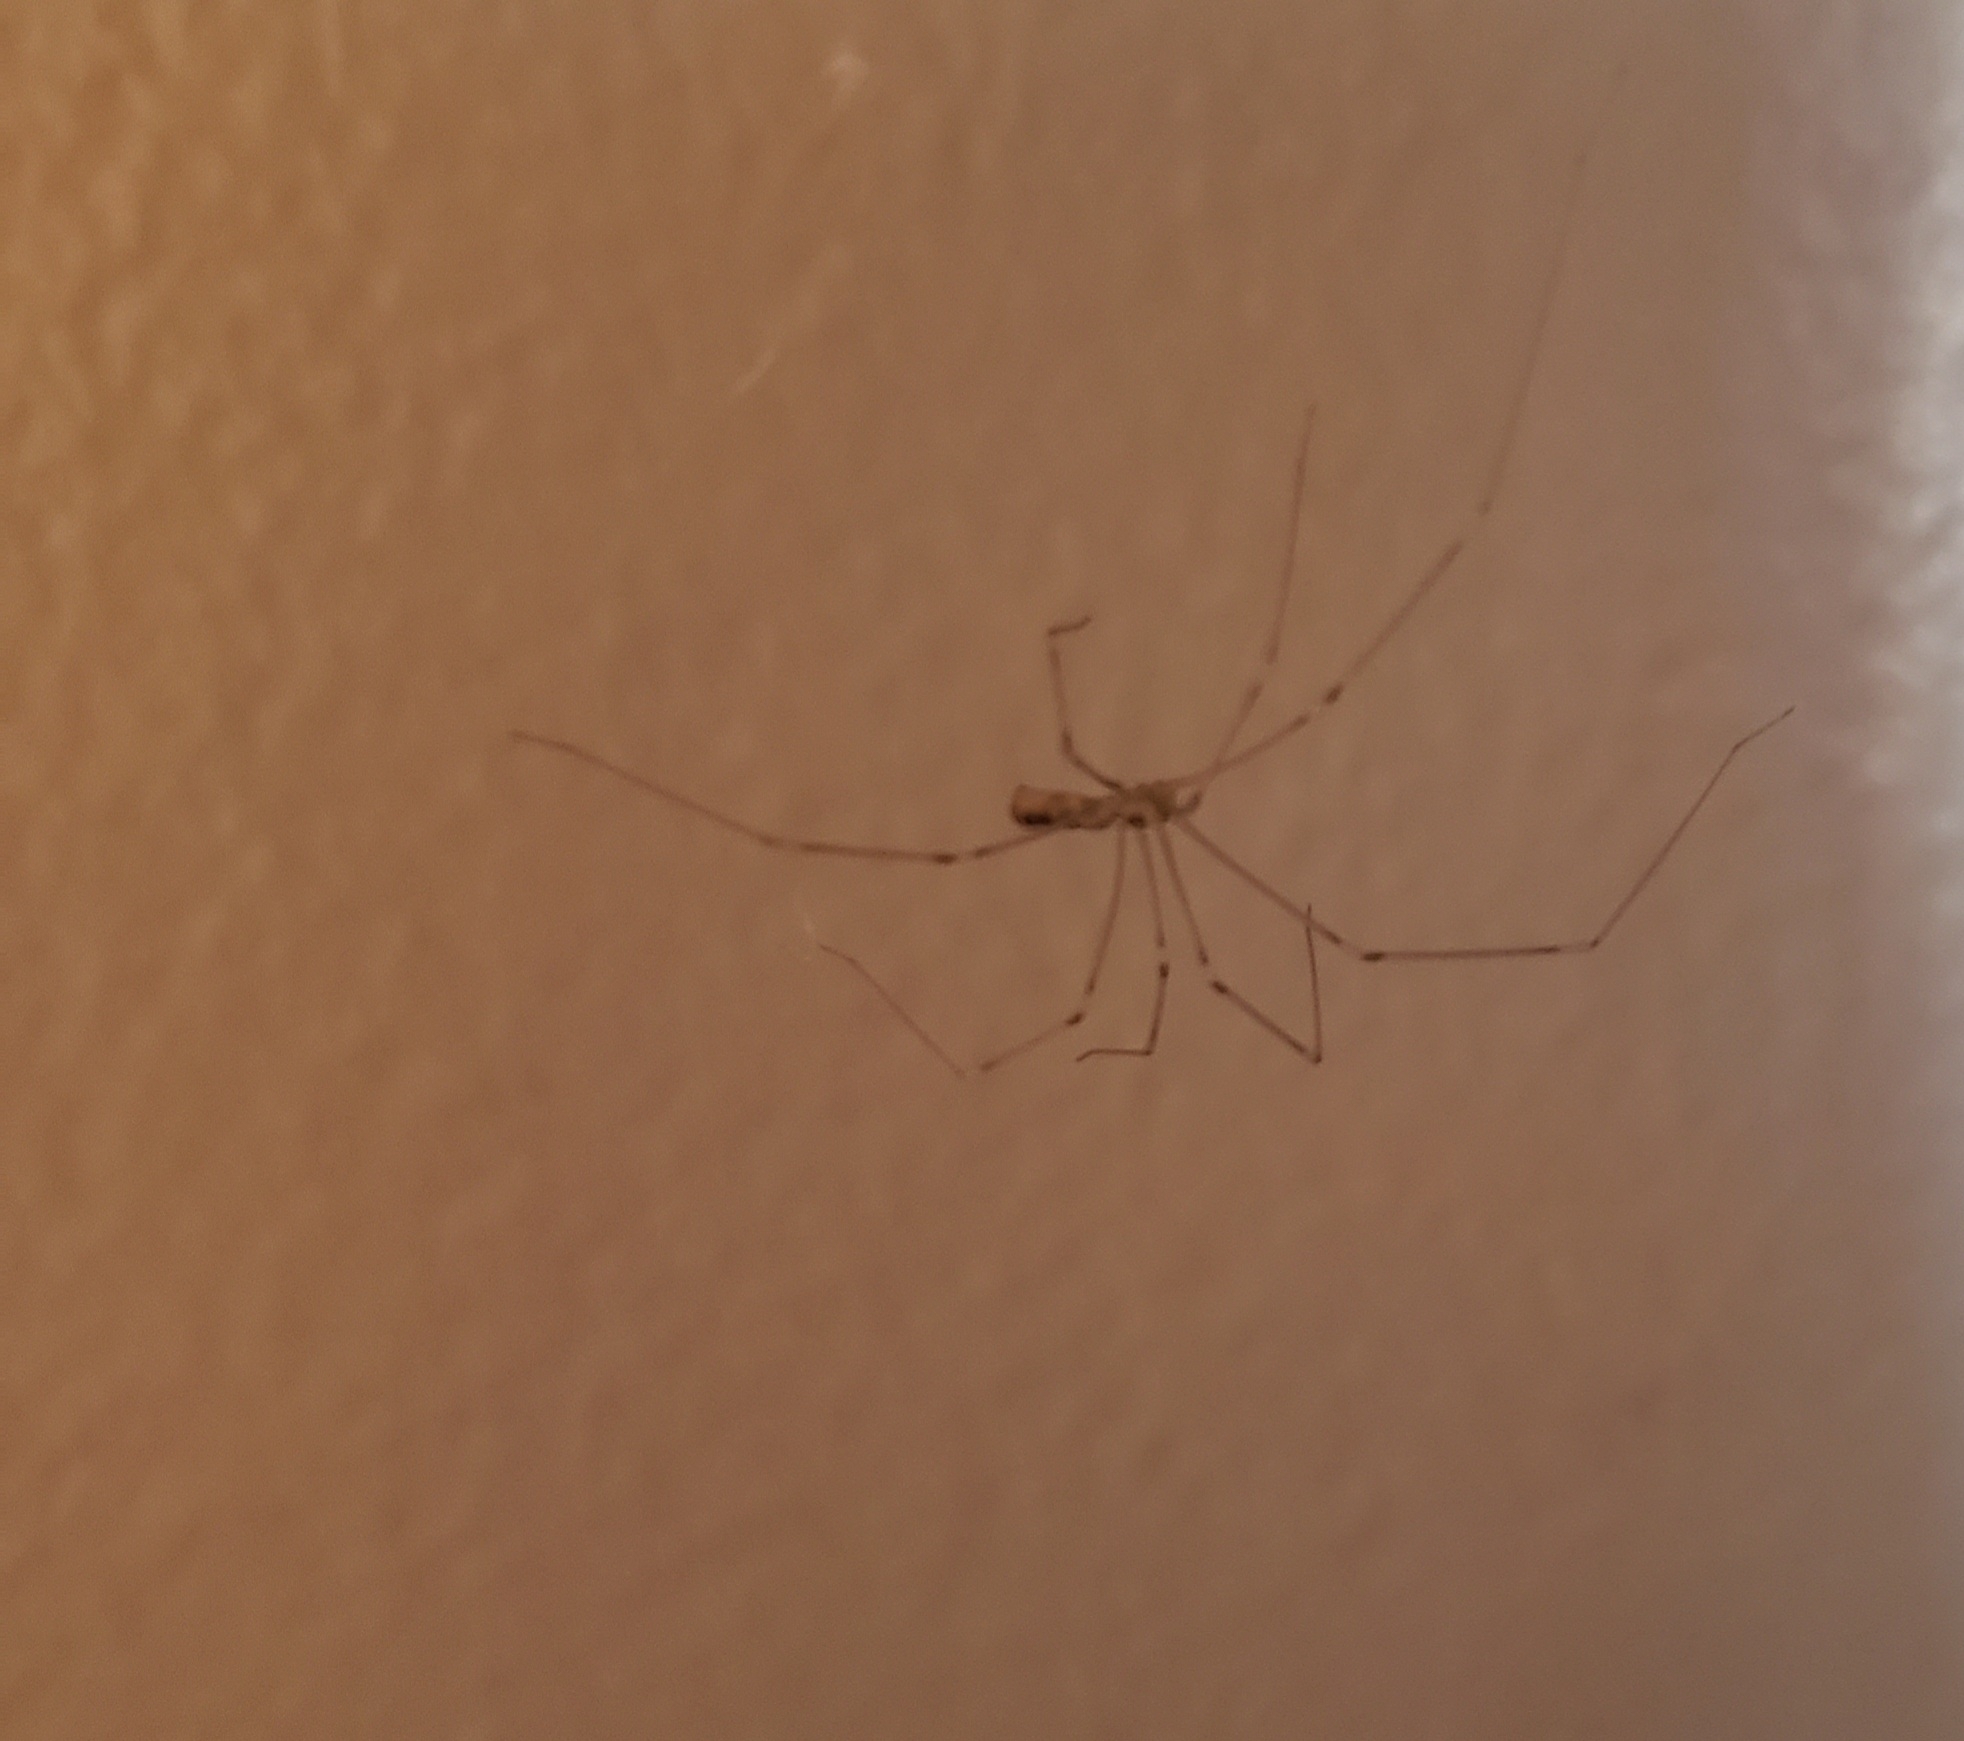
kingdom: Animalia
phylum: Arthropoda
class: Arachnida
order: Araneae
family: Pholcidae
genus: Pholcus
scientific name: Pholcus phalangioides
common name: Longbodied cellar spider
